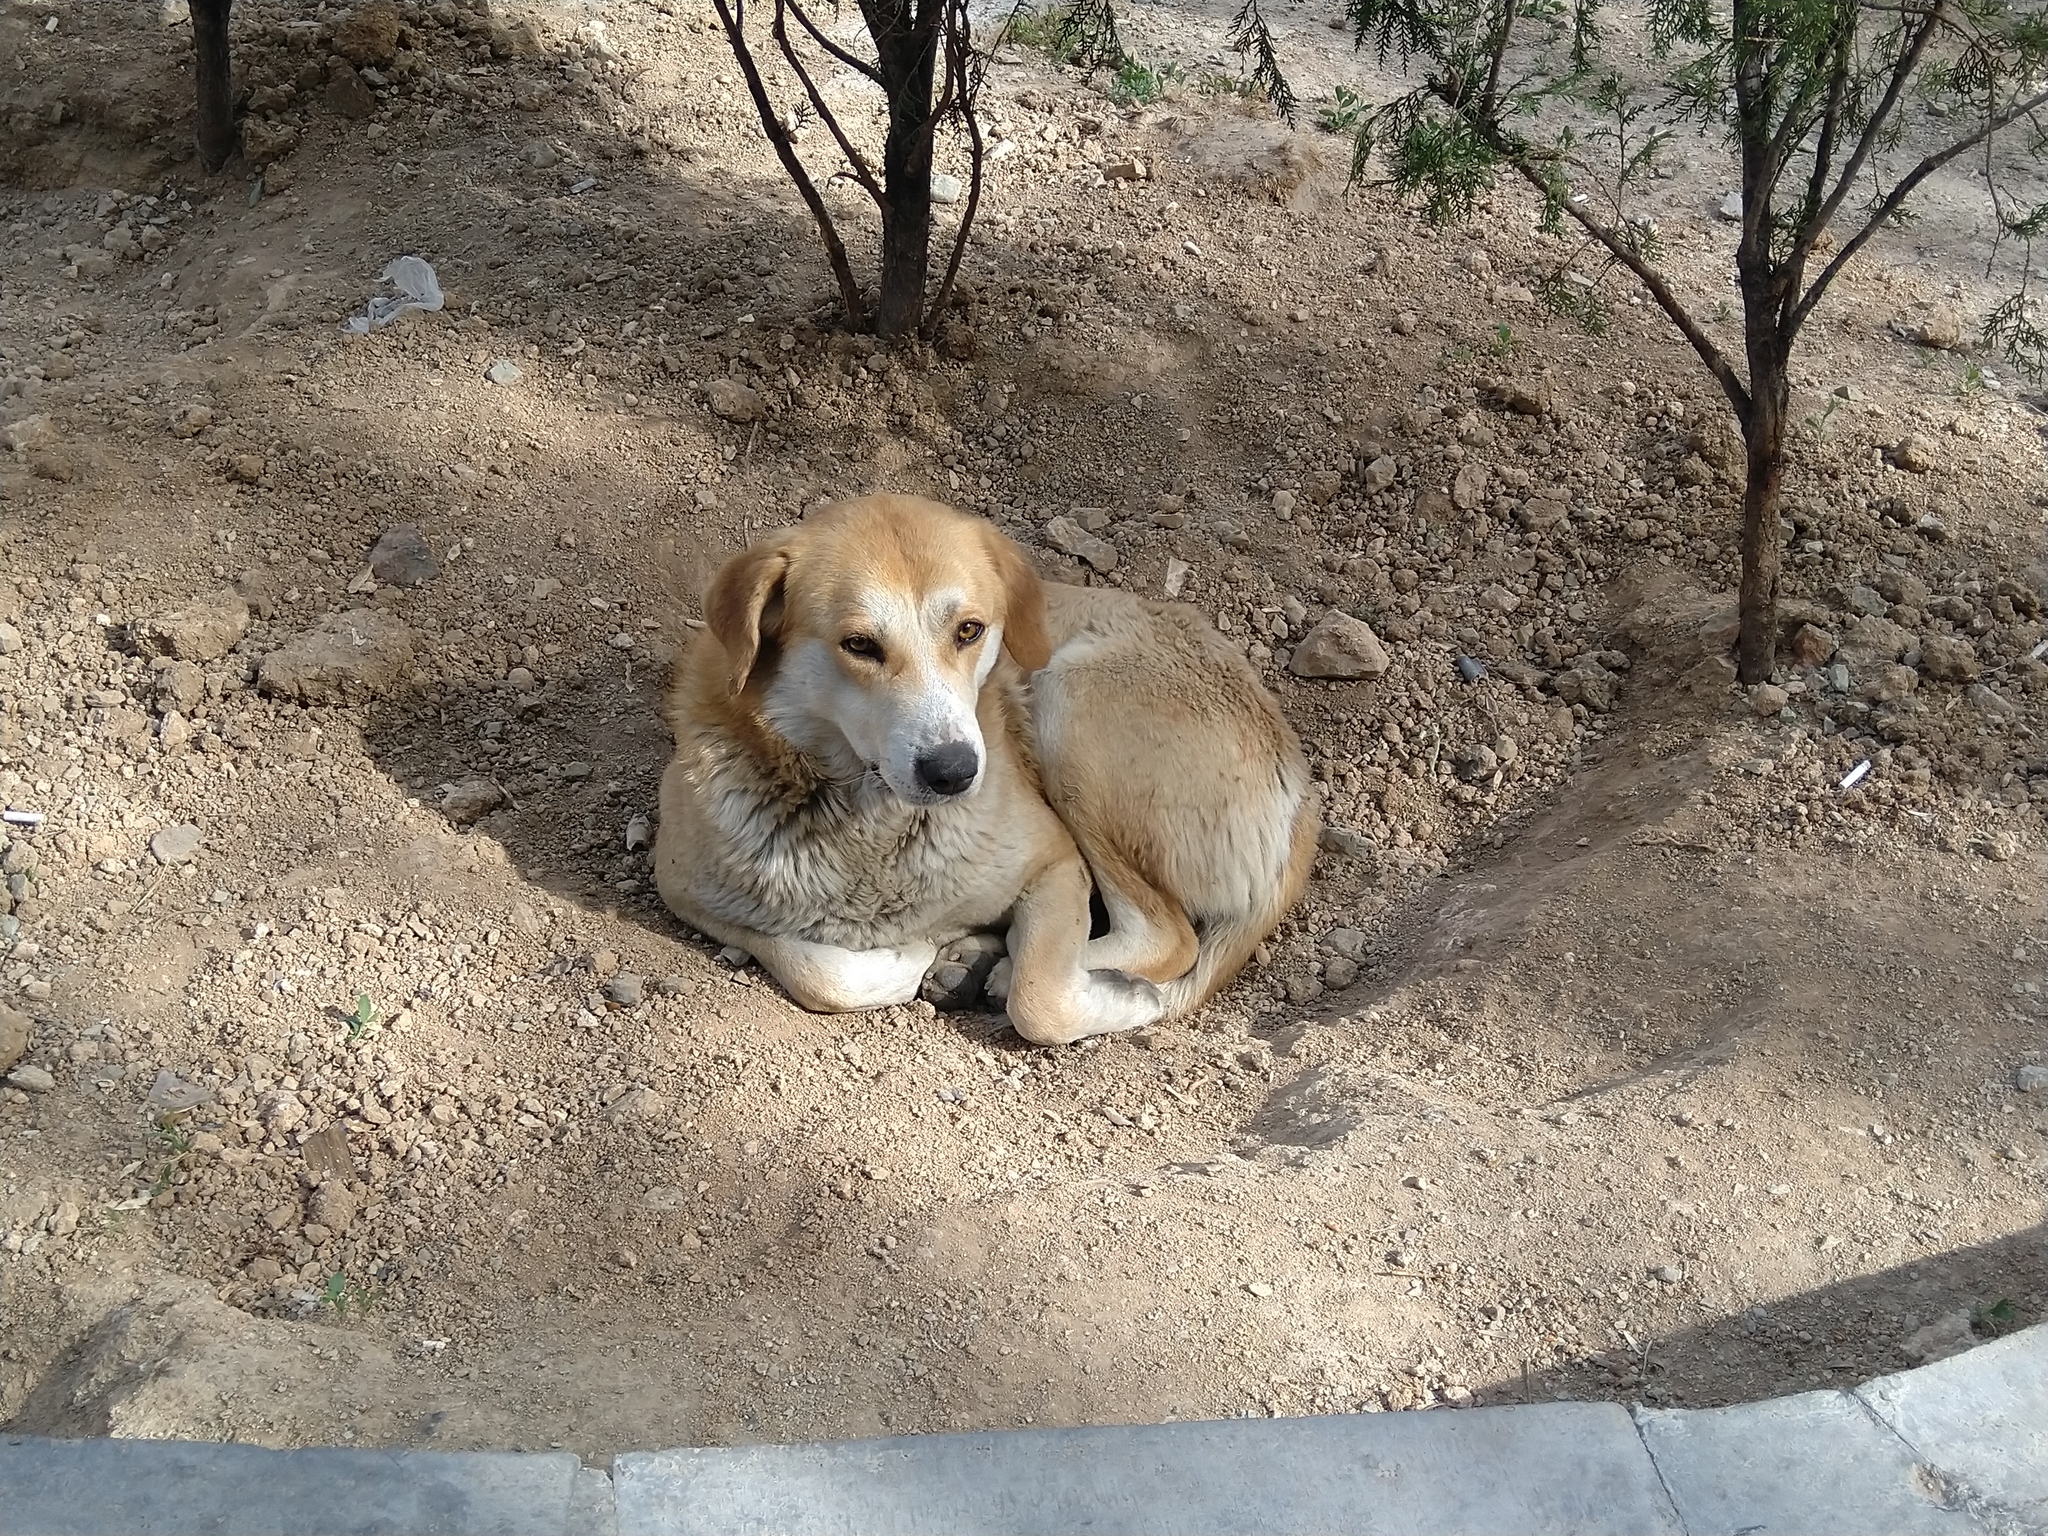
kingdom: Animalia
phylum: Chordata
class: Mammalia
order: Carnivora
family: Canidae
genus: Canis
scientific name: Canis lupus
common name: Gray wolf
